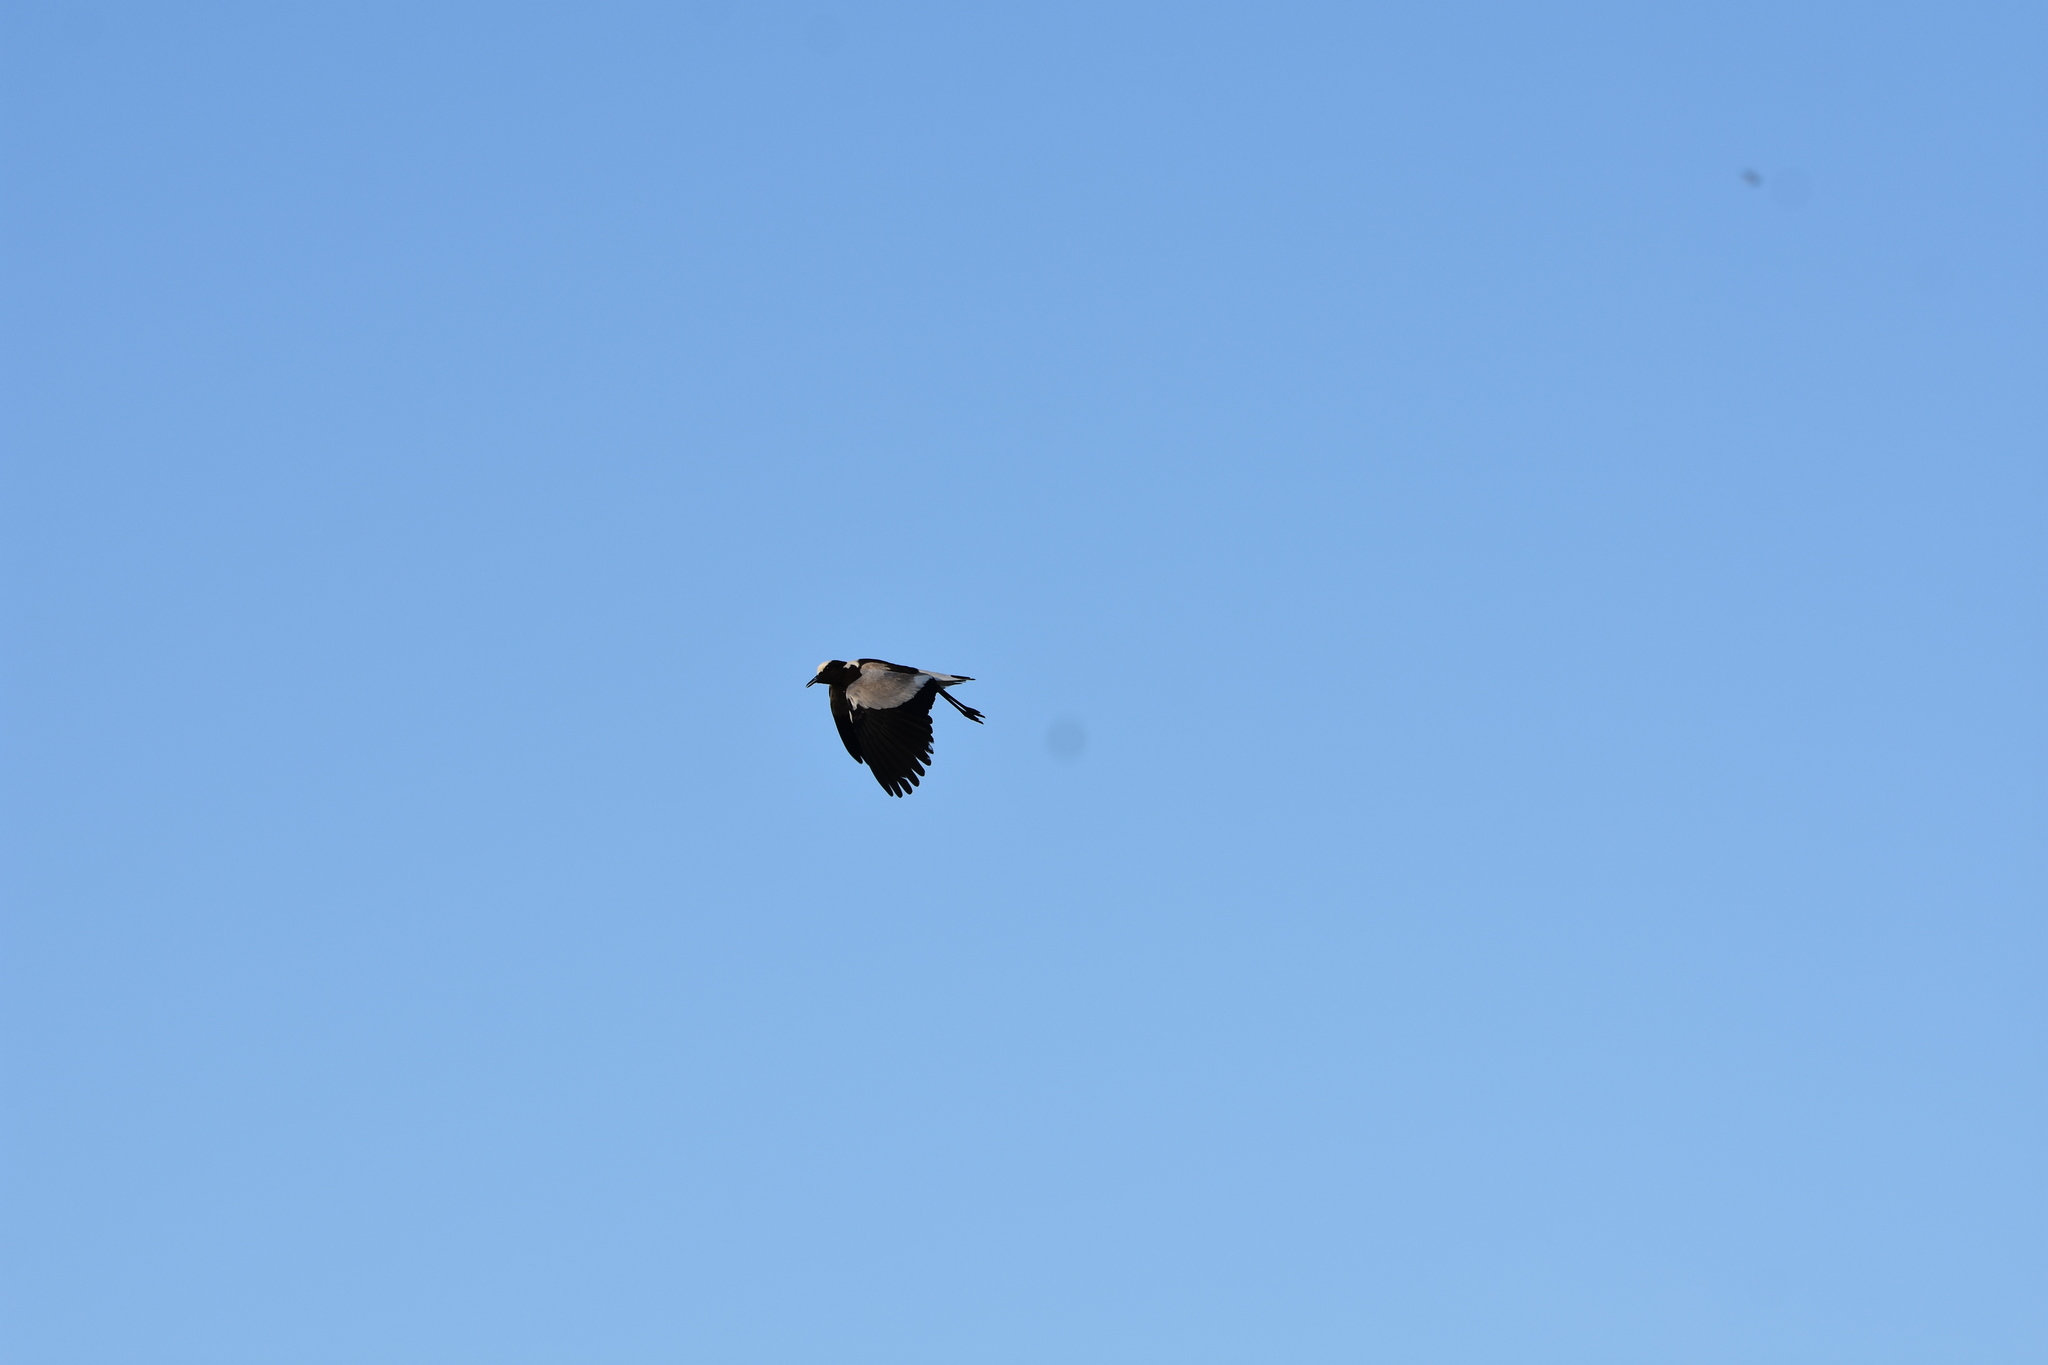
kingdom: Animalia
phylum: Chordata
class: Aves
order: Charadriiformes
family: Charadriidae
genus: Vanellus
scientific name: Vanellus armatus
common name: Blacksmith lapwing
